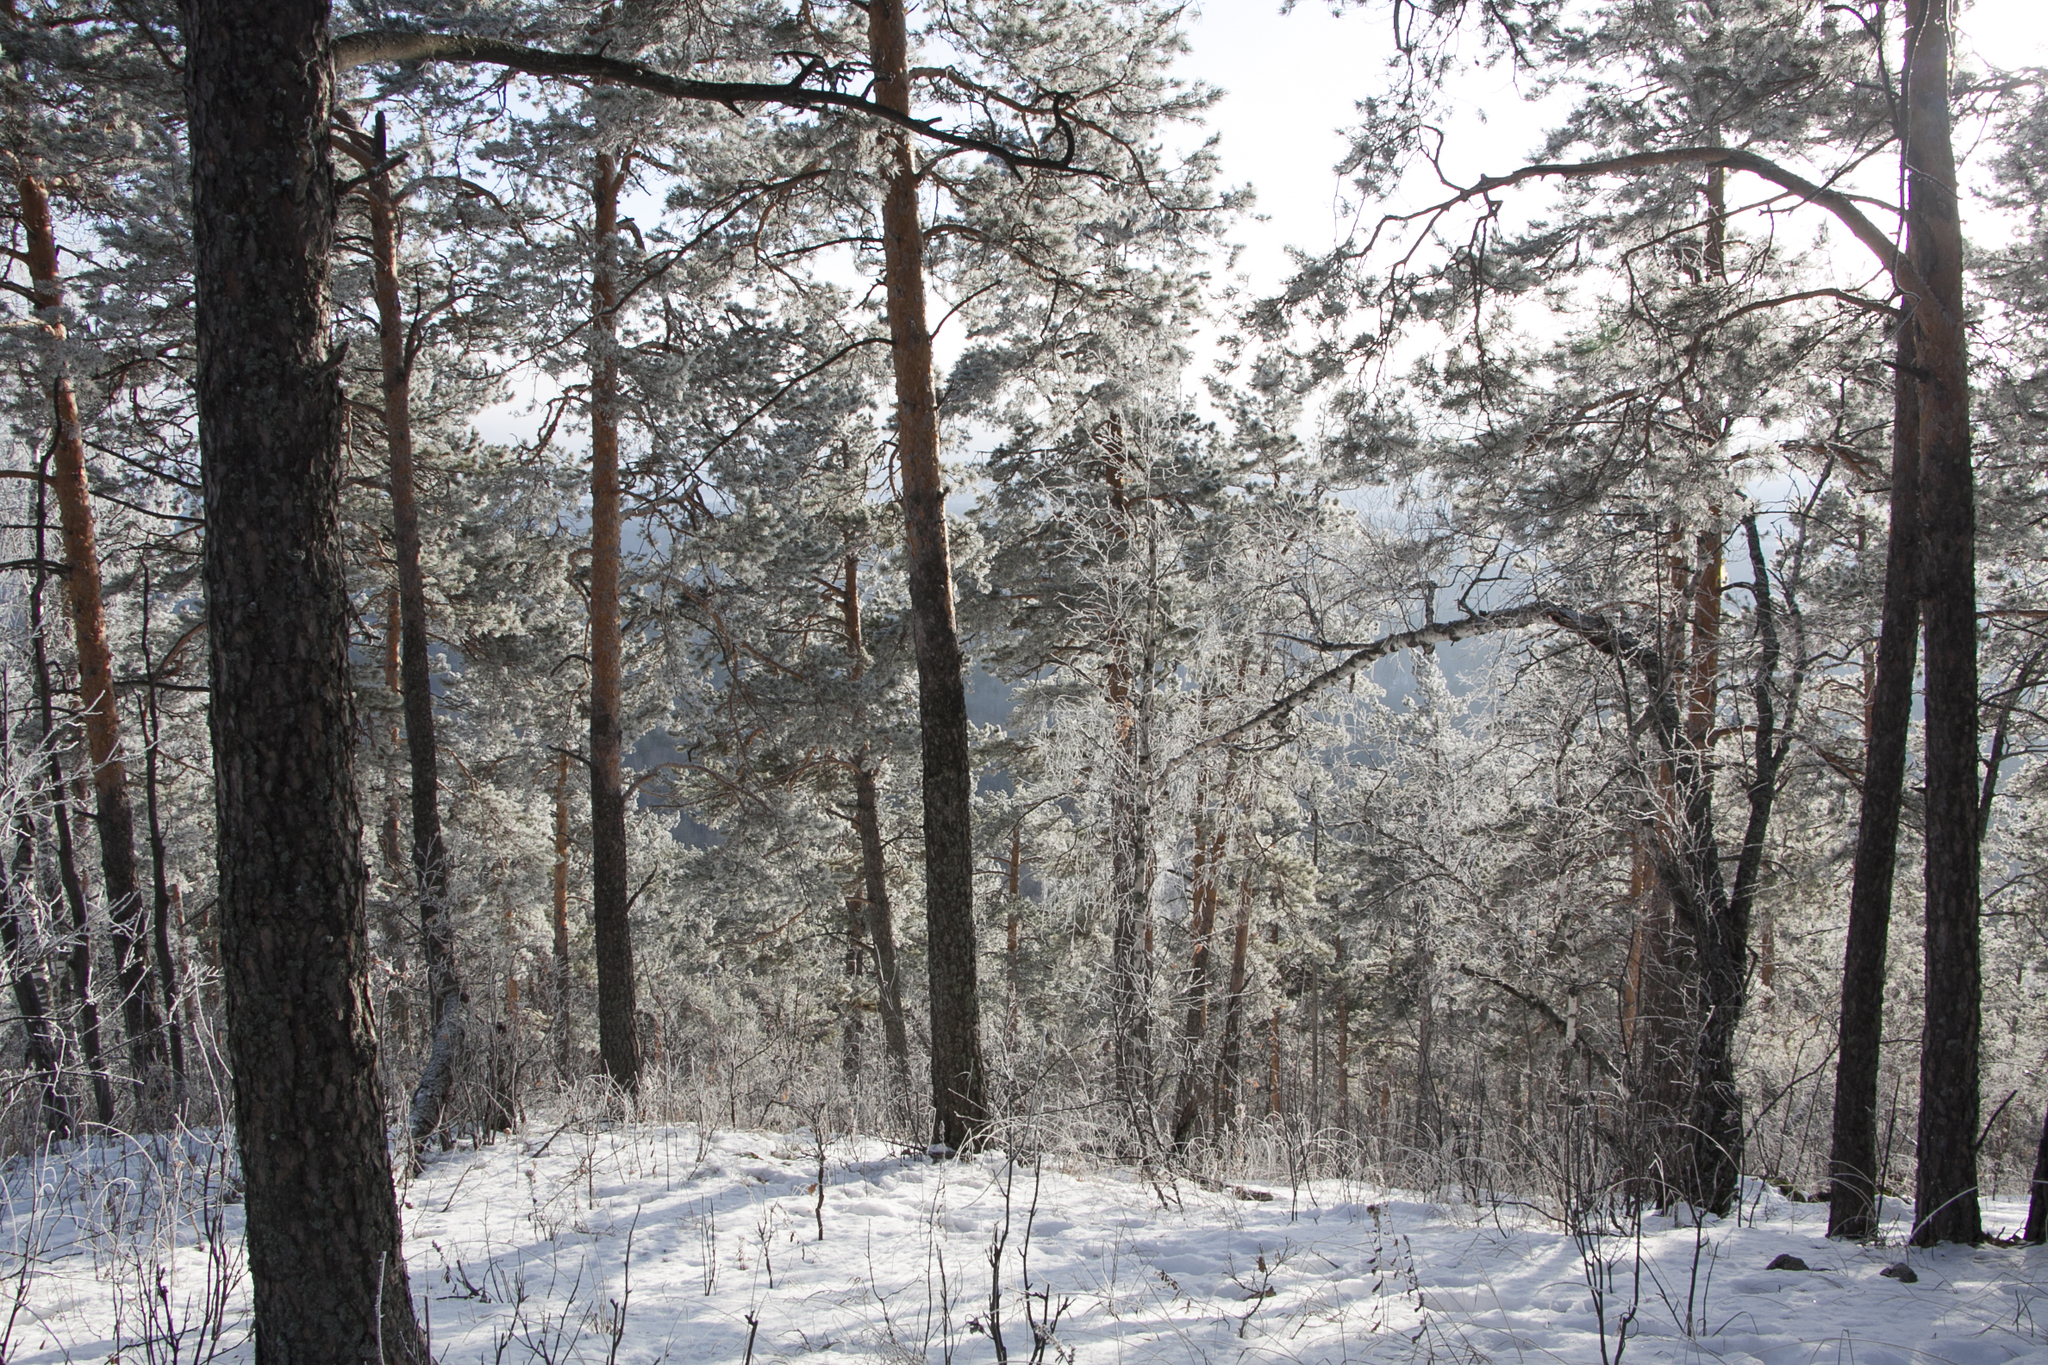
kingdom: Plantae
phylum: Tracheophyta
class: Pinopsida
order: Pinales
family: Pinaceae
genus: Pinus
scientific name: Pinus sylvestris
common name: Scots pine
